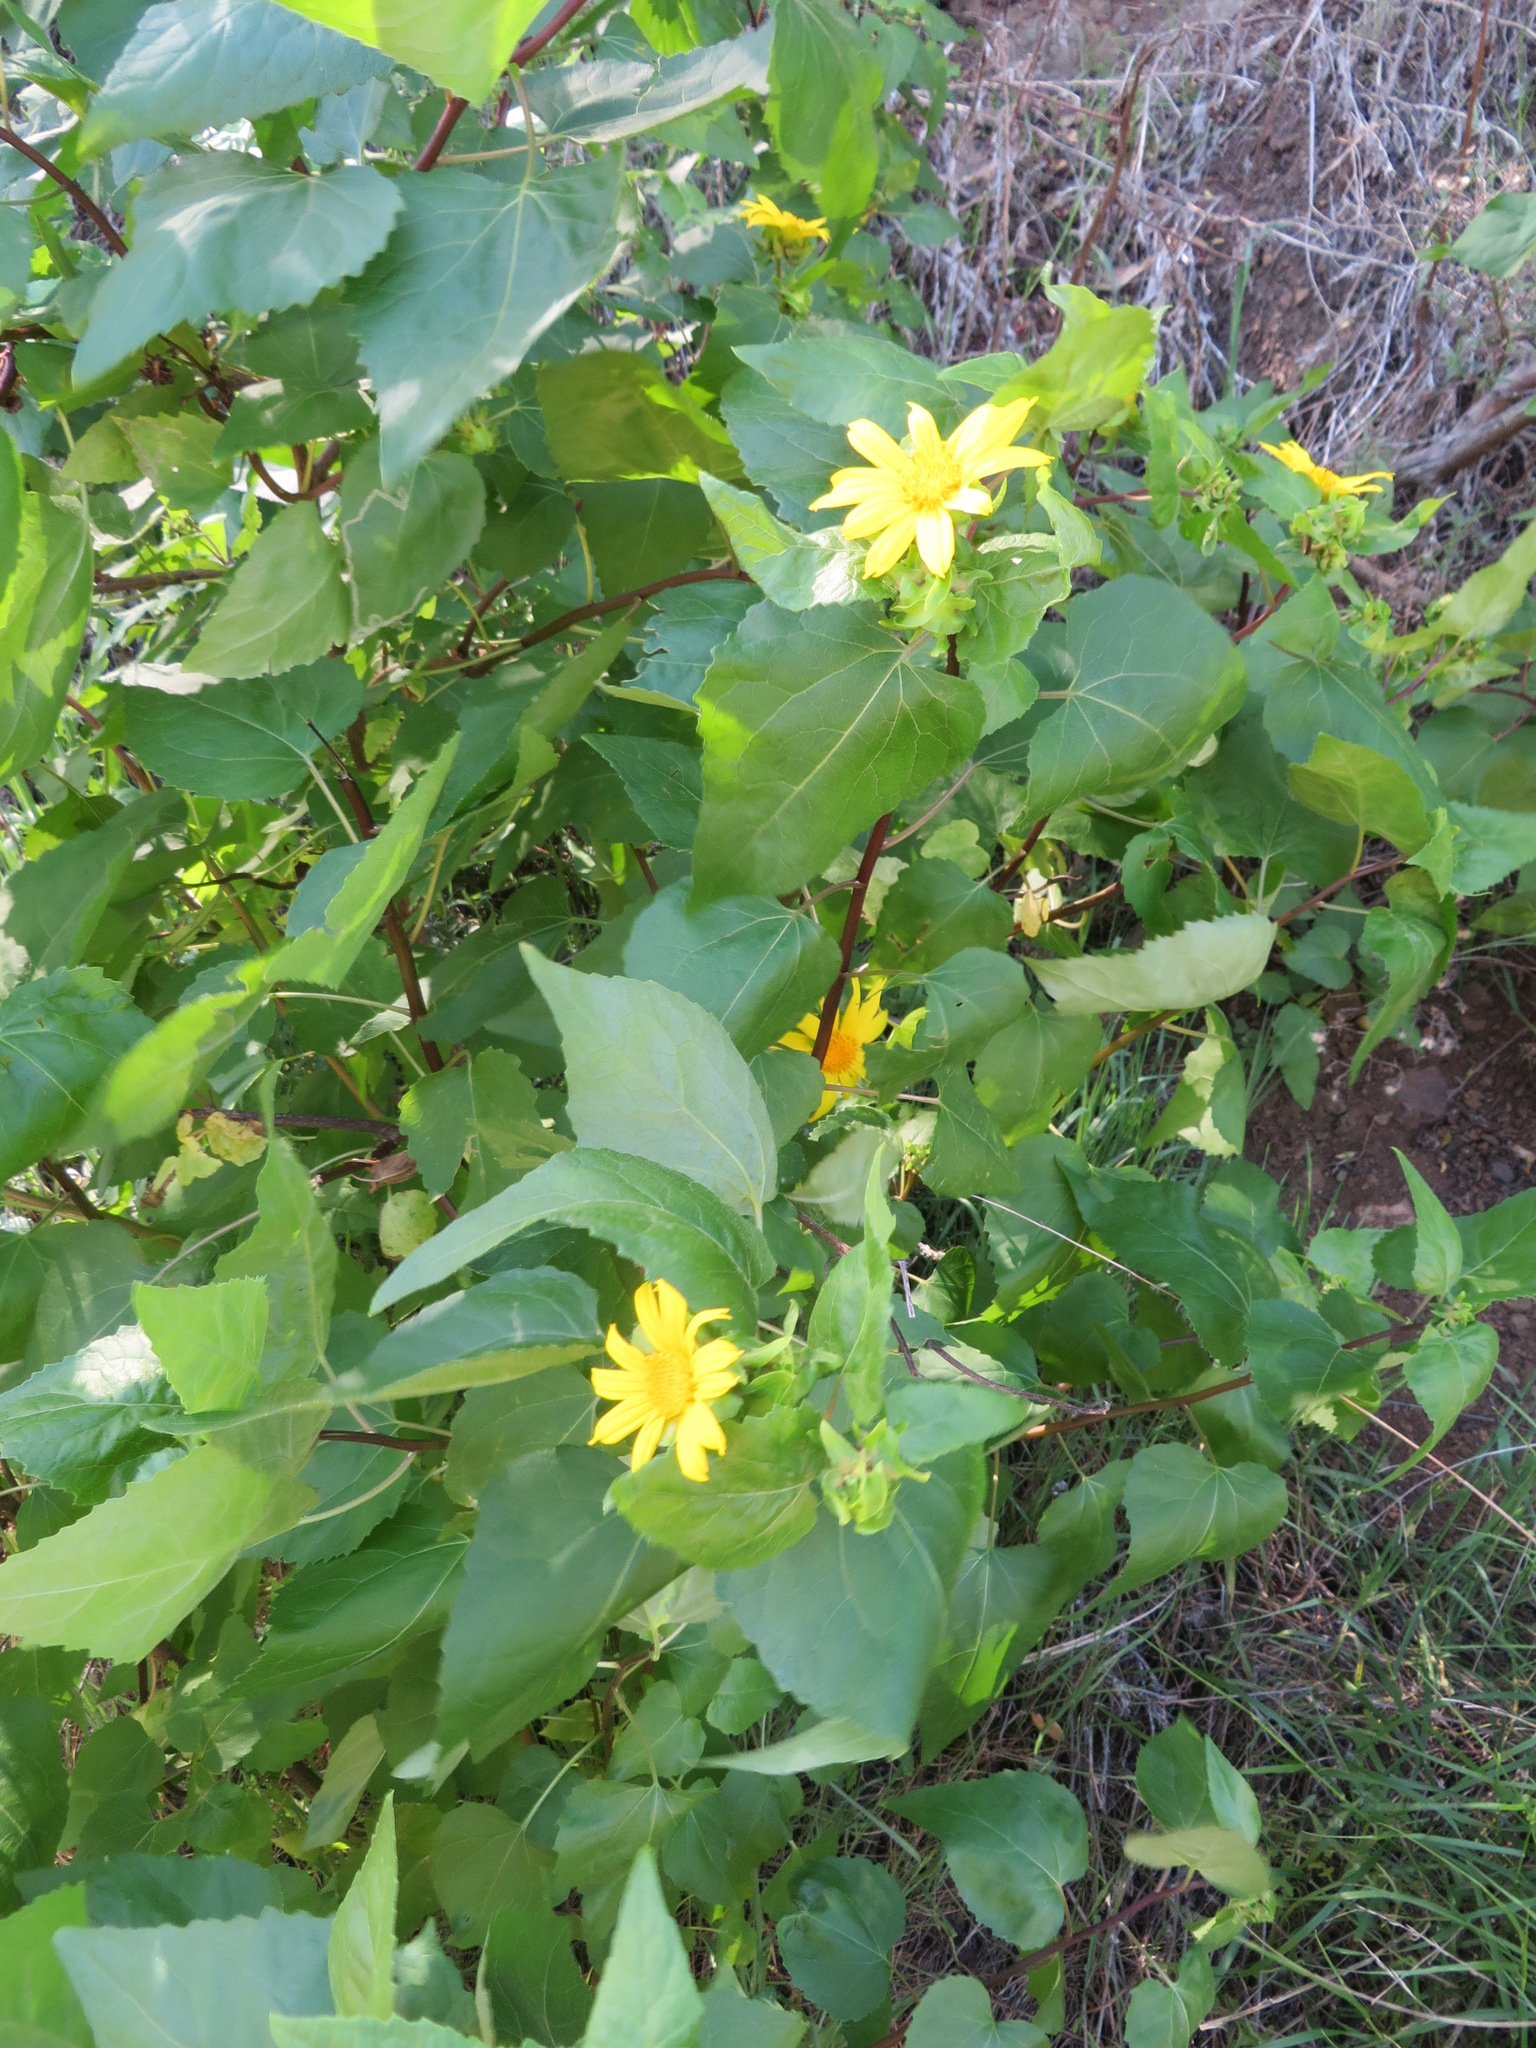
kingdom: Plantae
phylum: Tracheophyta
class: Magnoliopsida
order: Asterales
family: Asteraceae
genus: Venegasia
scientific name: Venegasia carpesioides
